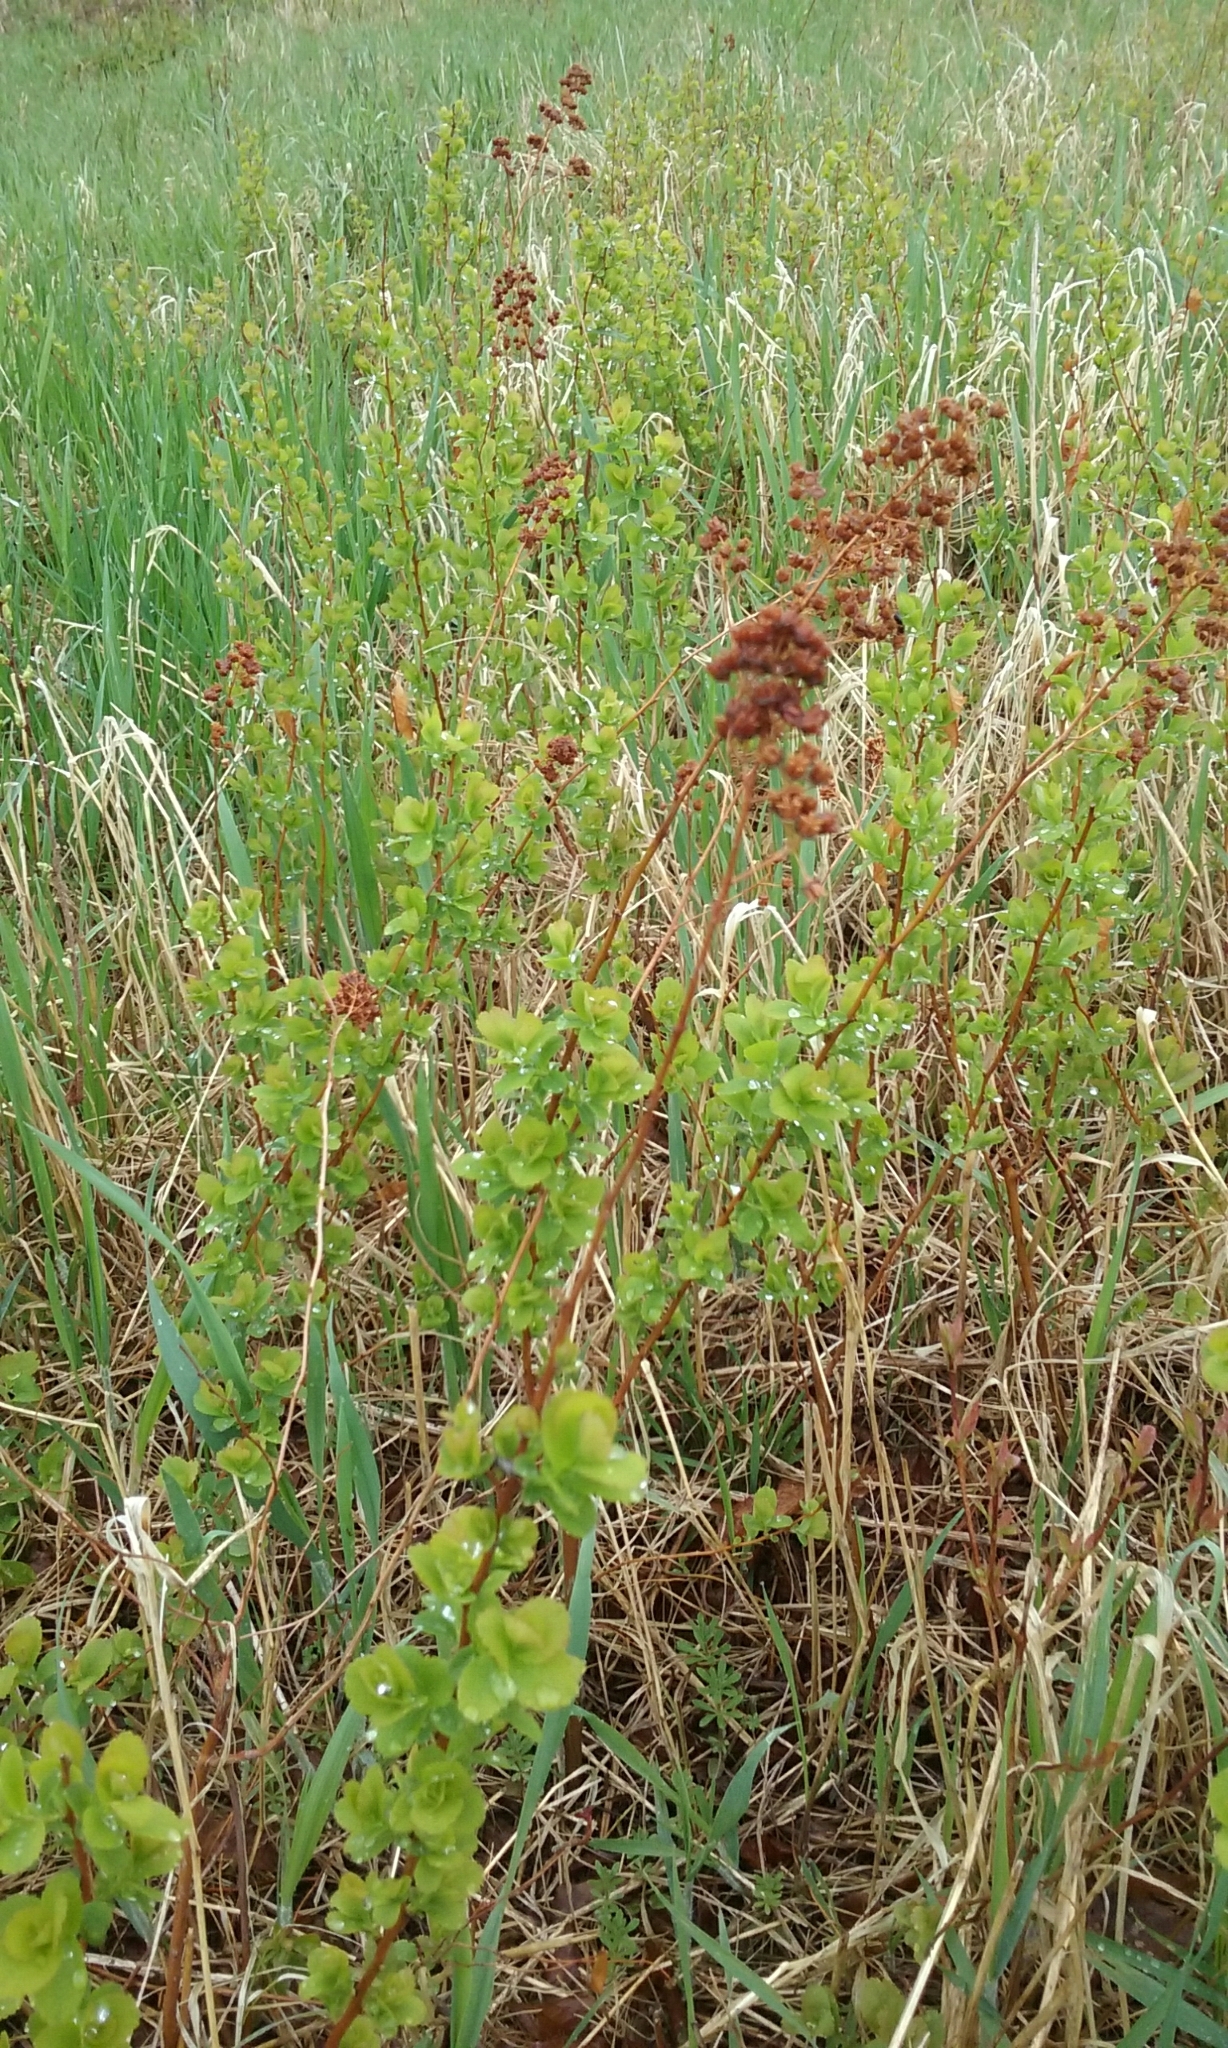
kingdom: Plantae
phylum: Tracheophyta
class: Magnoliopsida
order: Rosales
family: Rosaceae
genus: Spiraea
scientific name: Spiraea alba
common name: Pale bridewort
